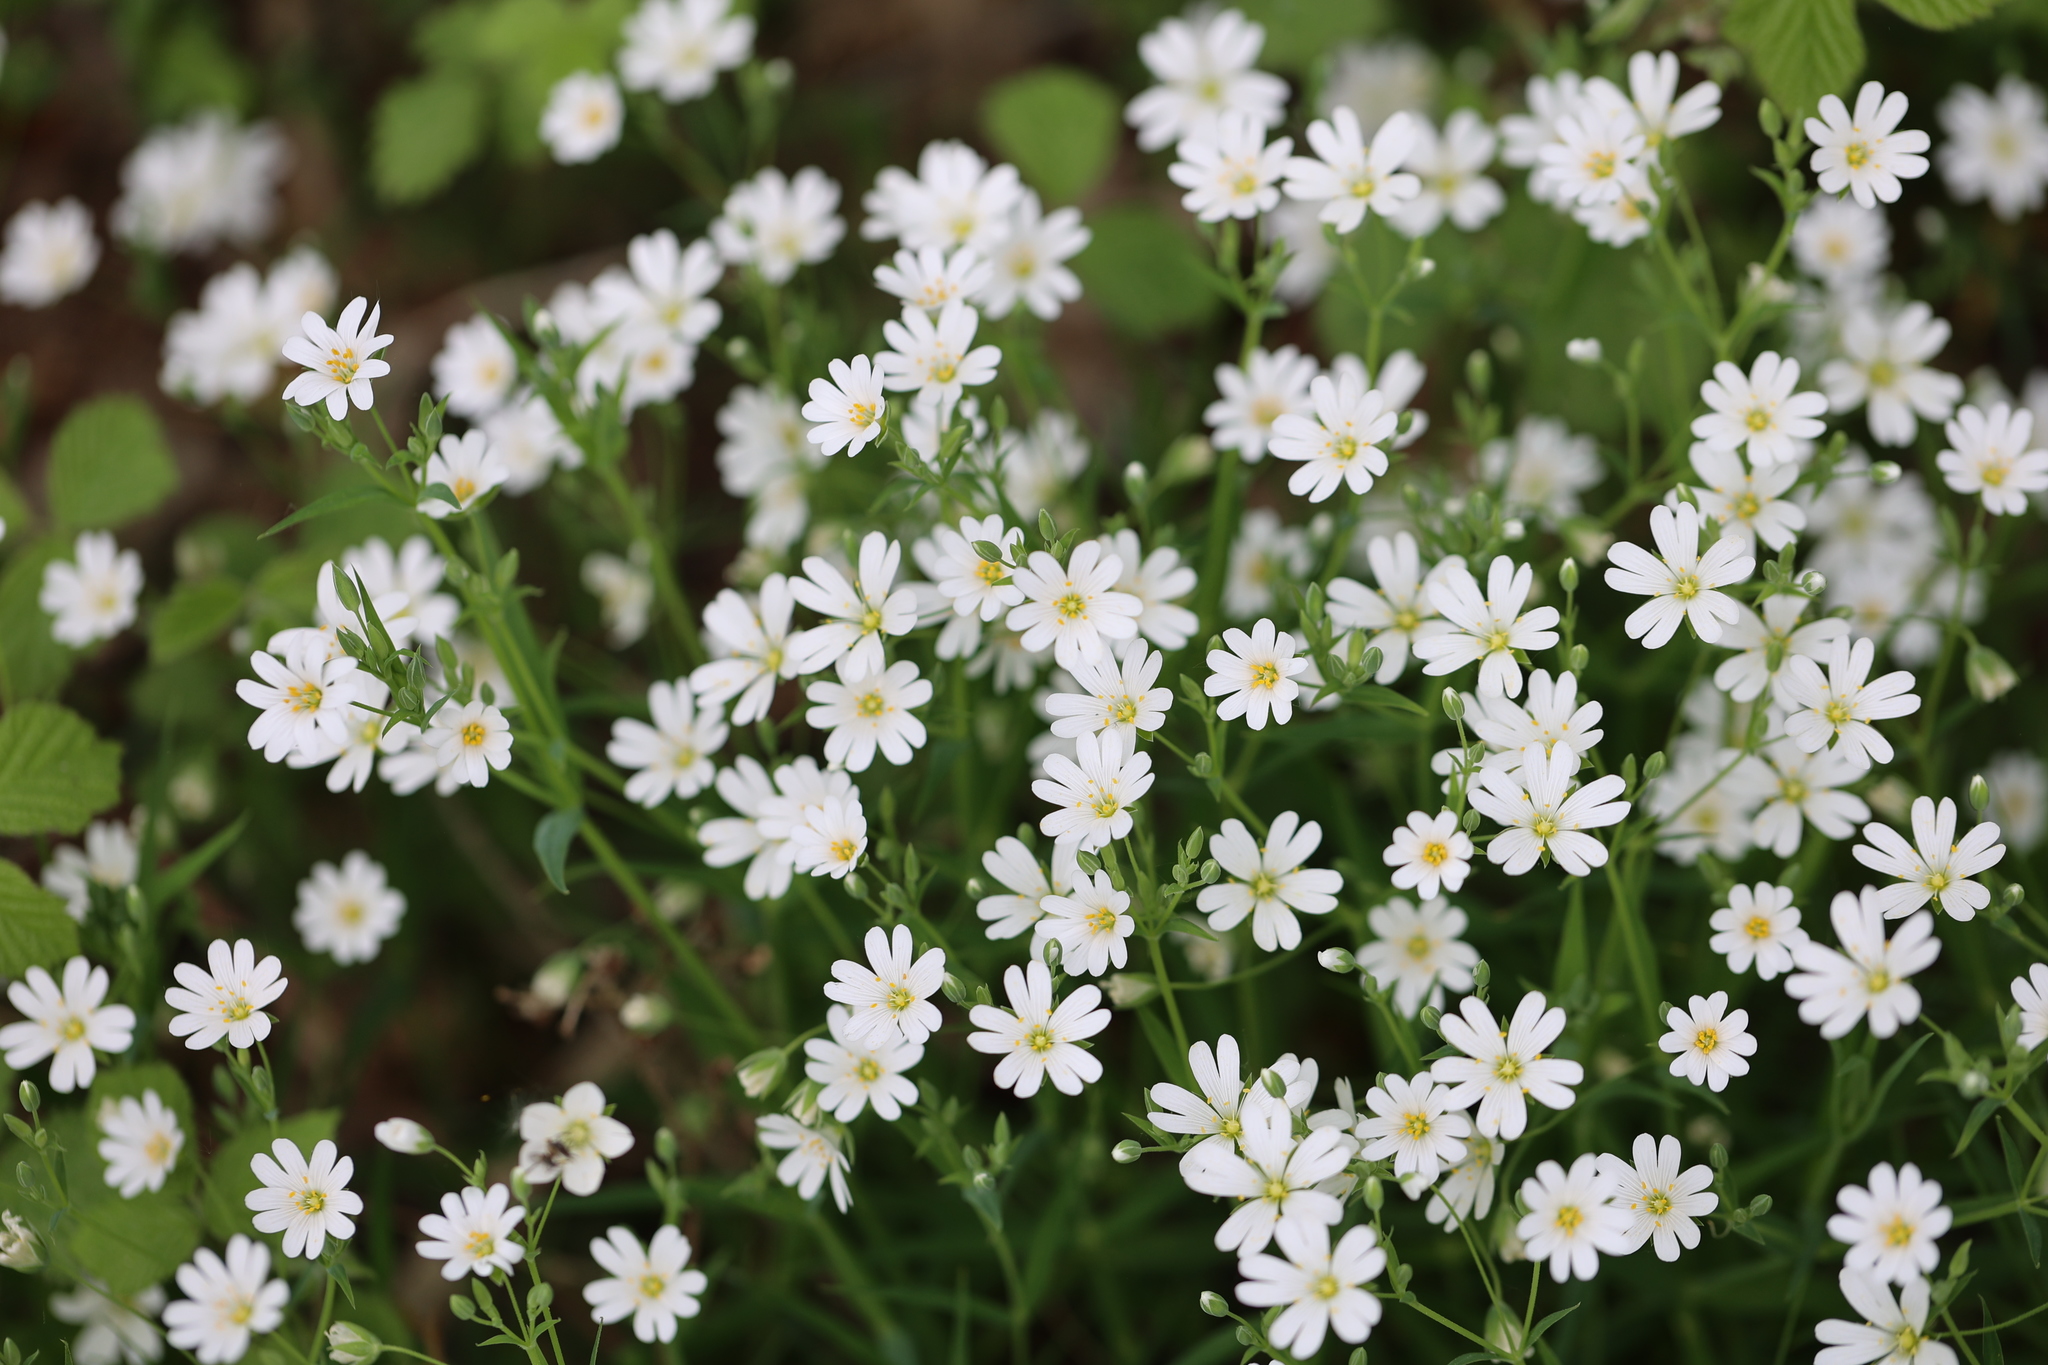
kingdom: Plantae
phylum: Tracheophyta
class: Magnoliopsida
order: Caryophyllales
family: Caryophyllaceae
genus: Rabelera
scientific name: Rabelera holostea
